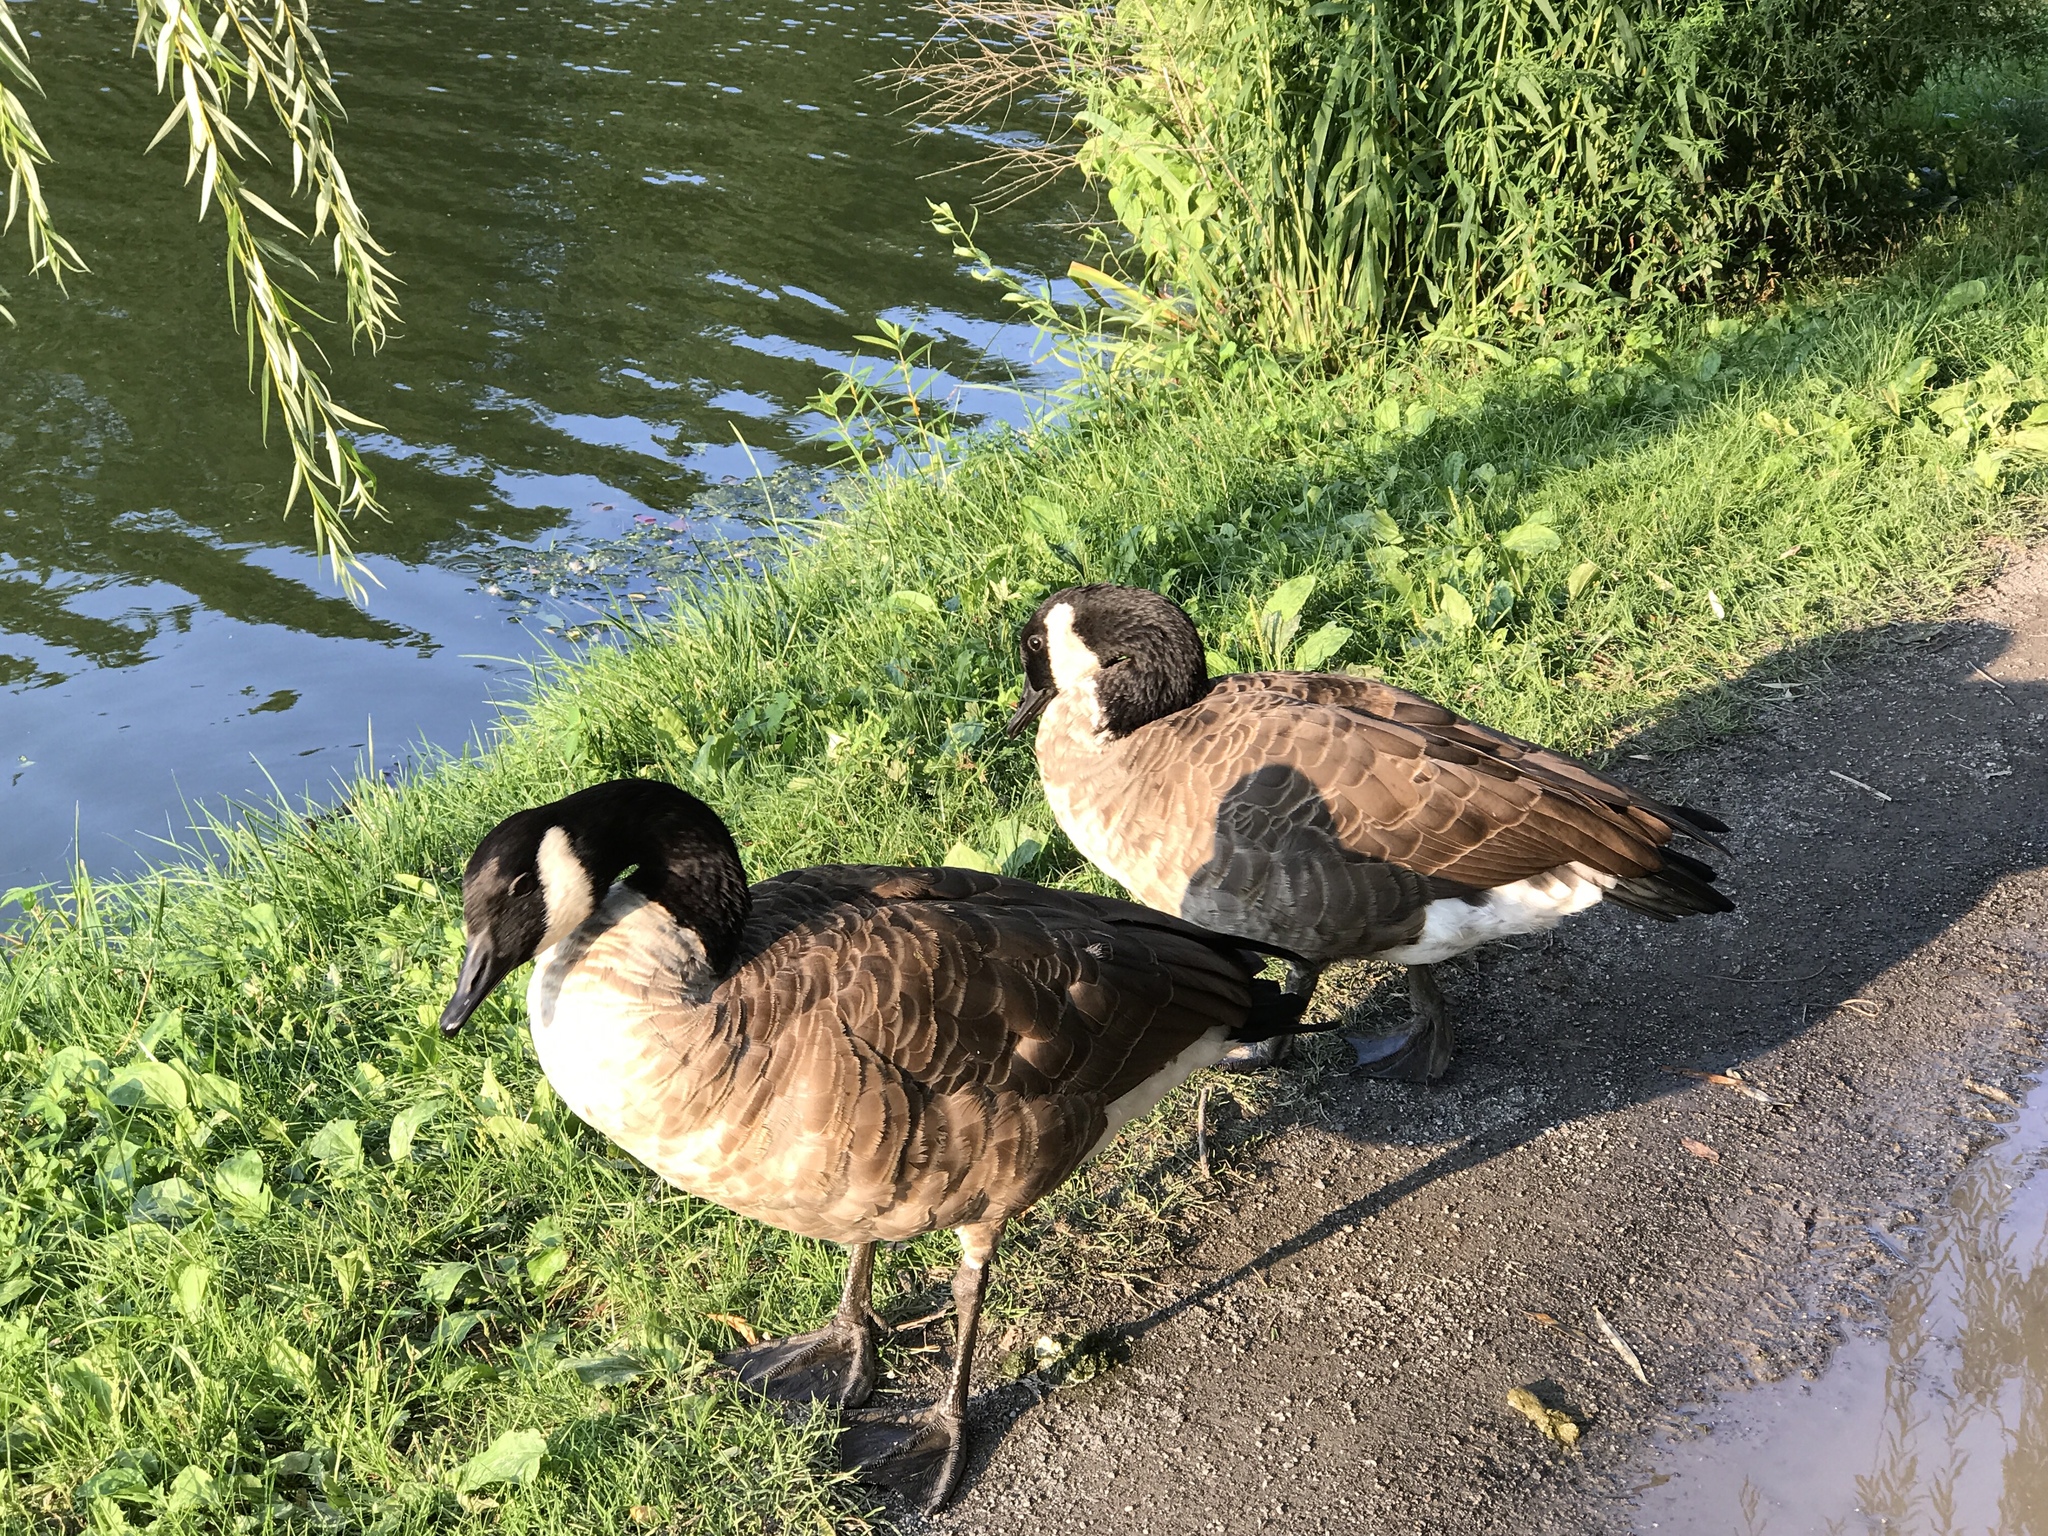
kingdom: Animalia
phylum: Chordata
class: Aves
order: Anseriformes
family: Anatidae
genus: Branta
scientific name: Branta canadensis
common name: Canada goose
